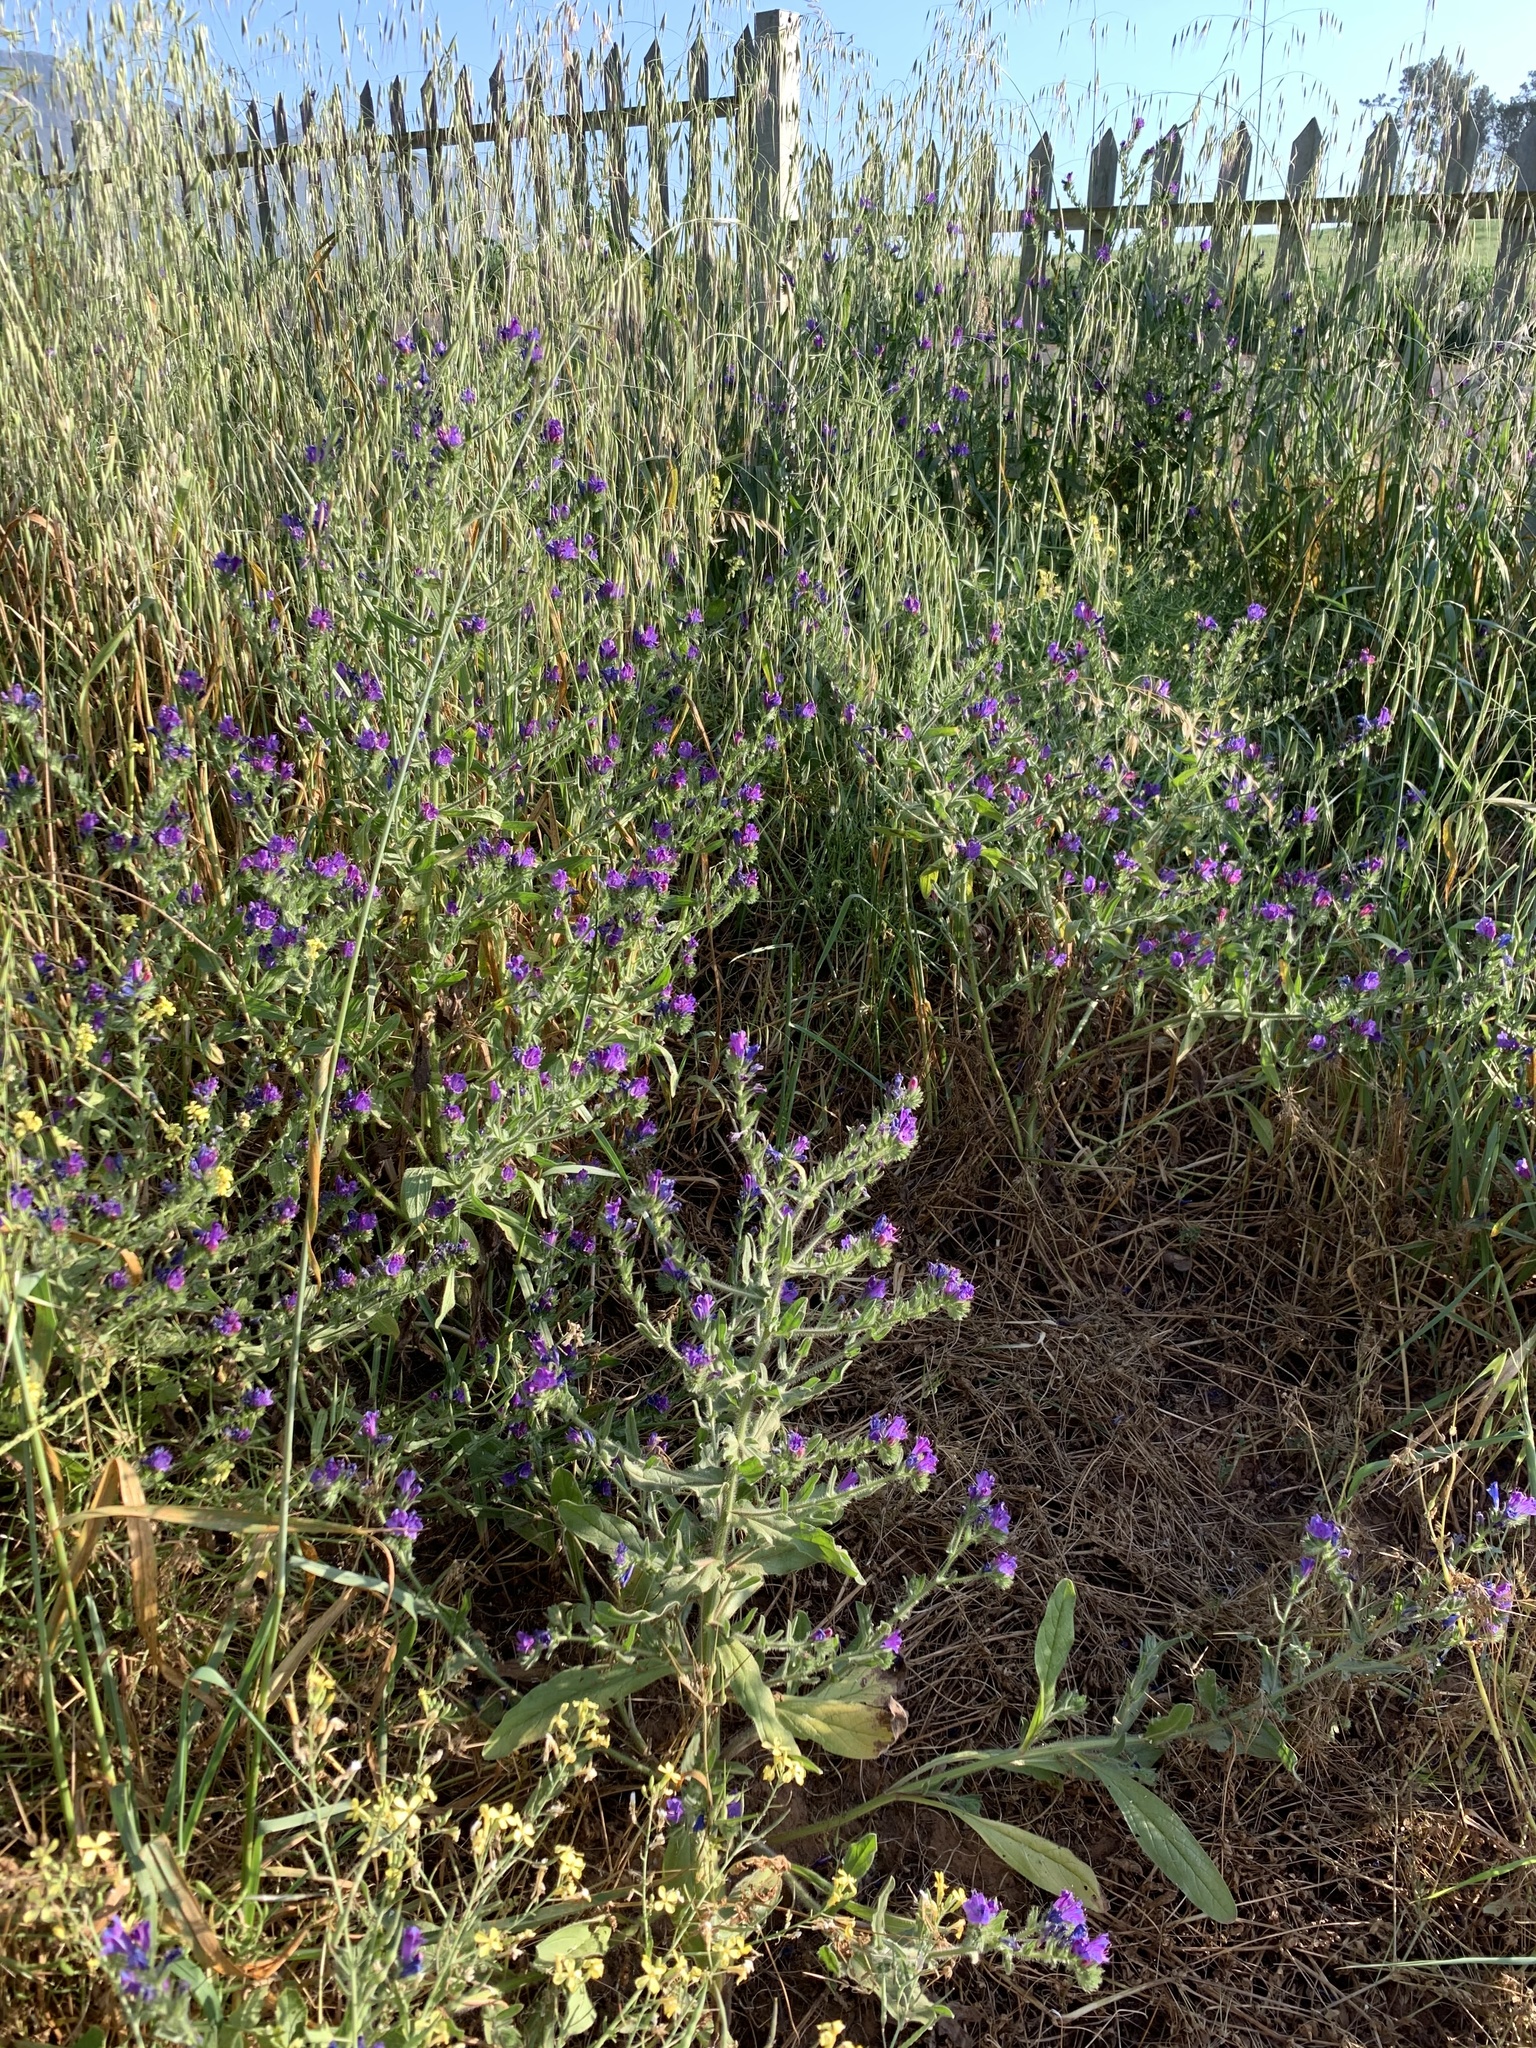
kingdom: Plantae
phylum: Tracheophyta
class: Magnoliopsida
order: Boraginales
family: Boraginaceae
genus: Echium
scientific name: Echium plantagineum
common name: Purple viper's-bugloss
